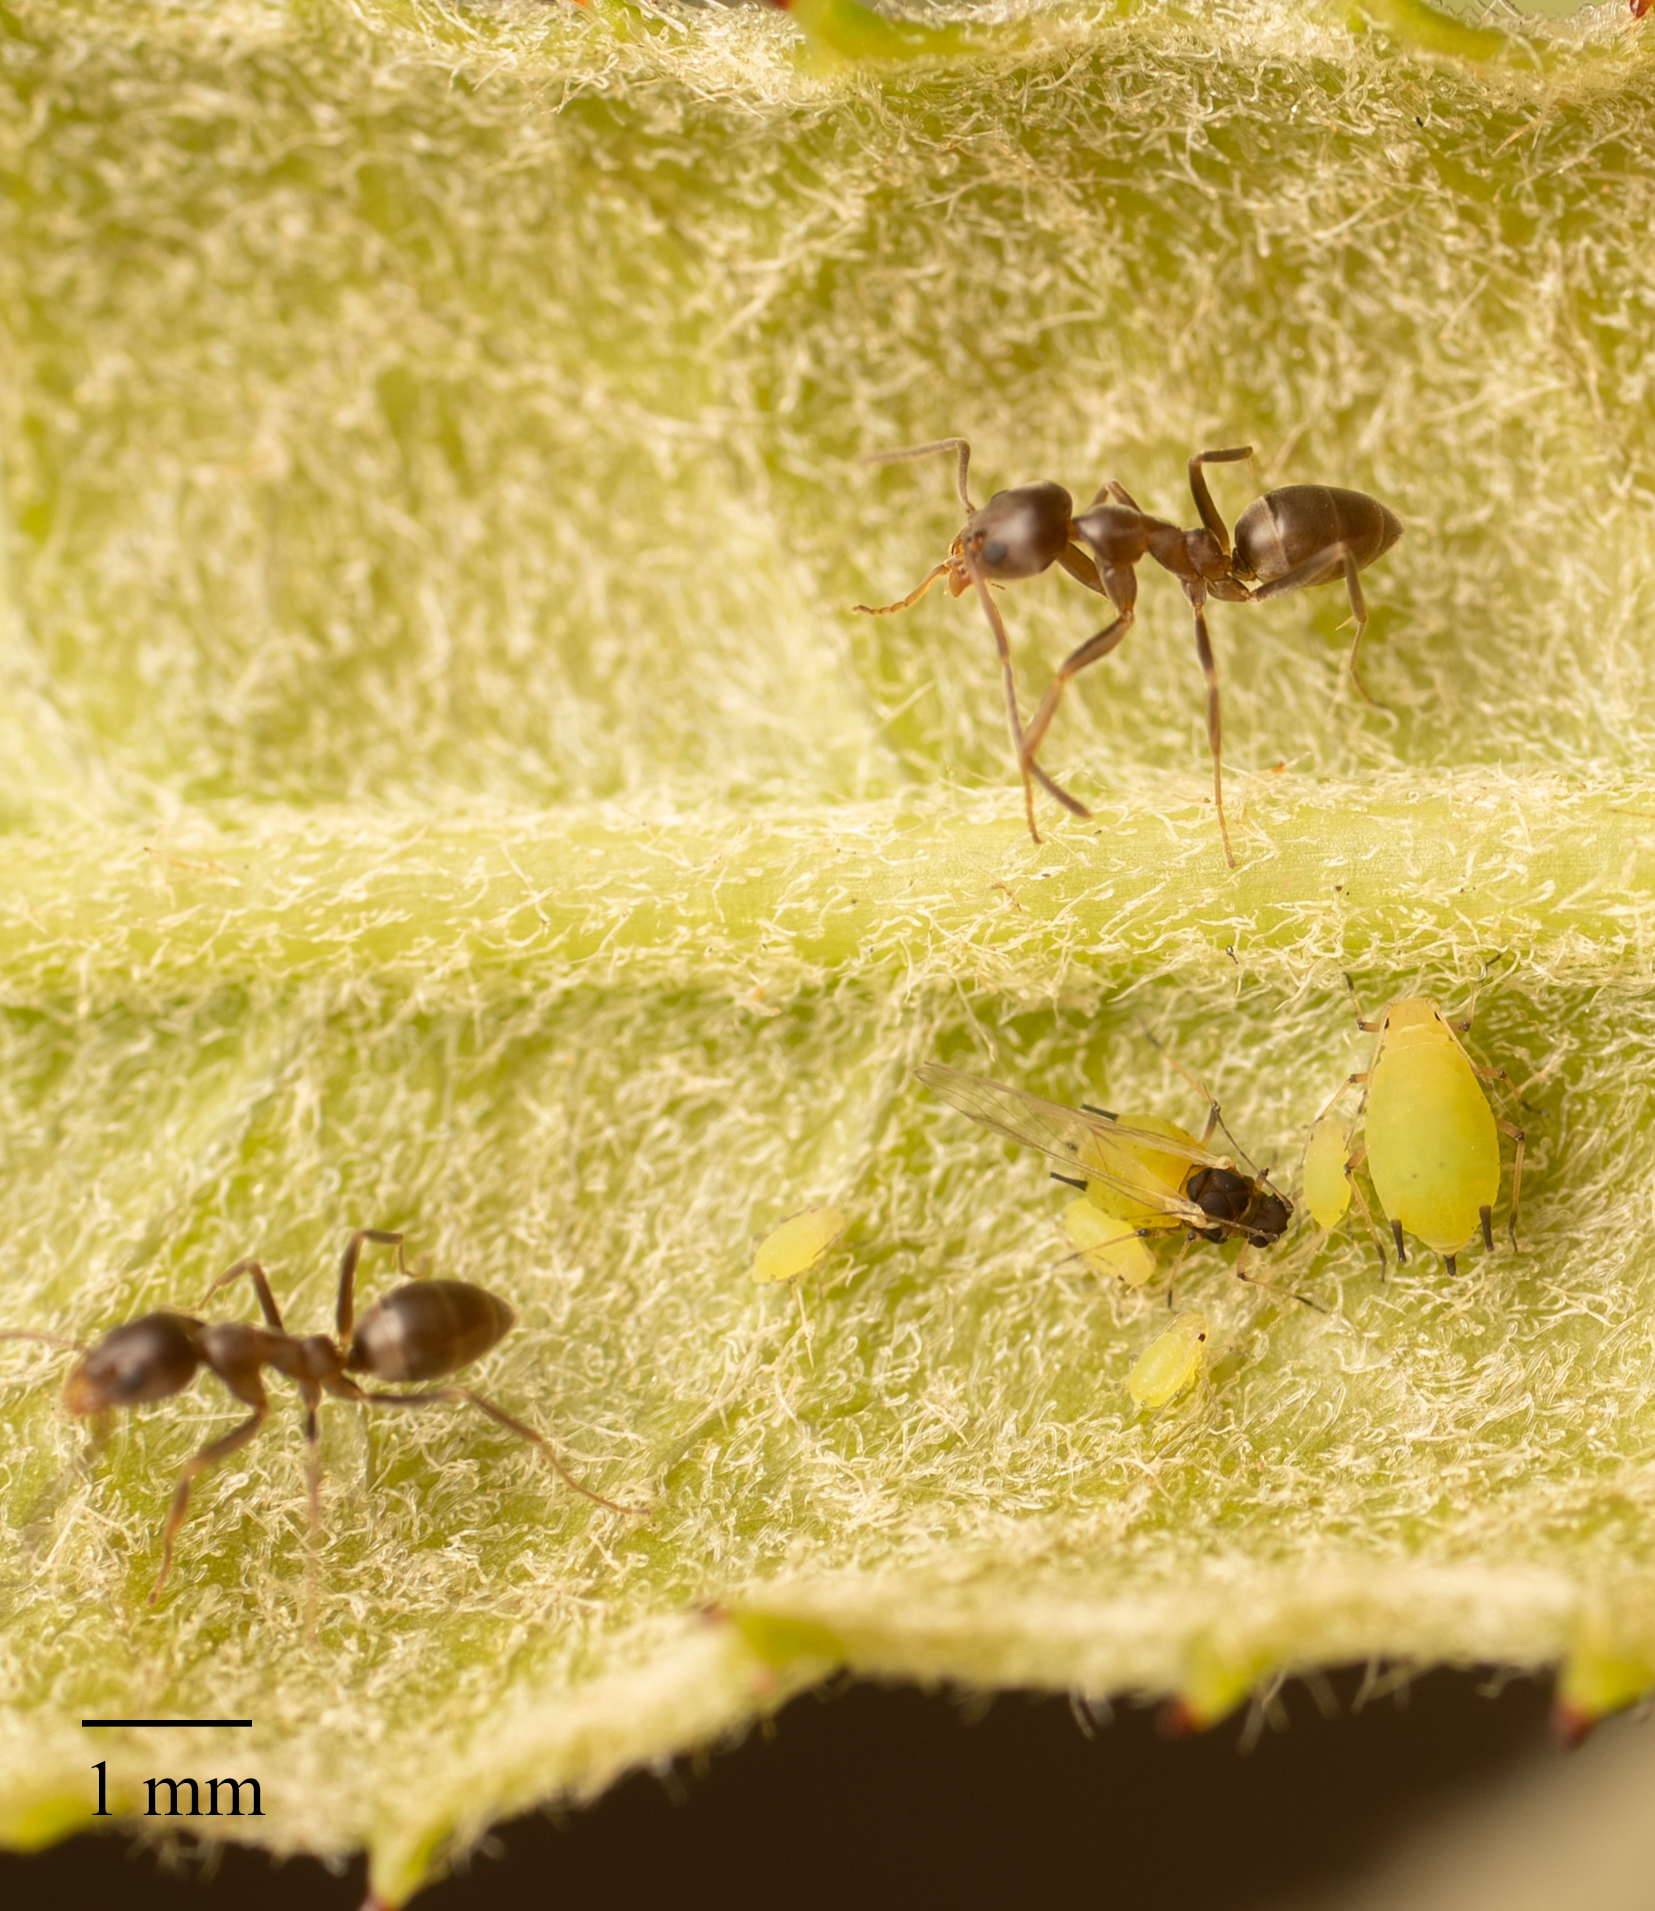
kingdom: Animalia
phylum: Arthropoda
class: Insecta
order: Hemiptera
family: Aphididae
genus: Aphis
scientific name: Aphis spiraecola
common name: Spirea aphid
